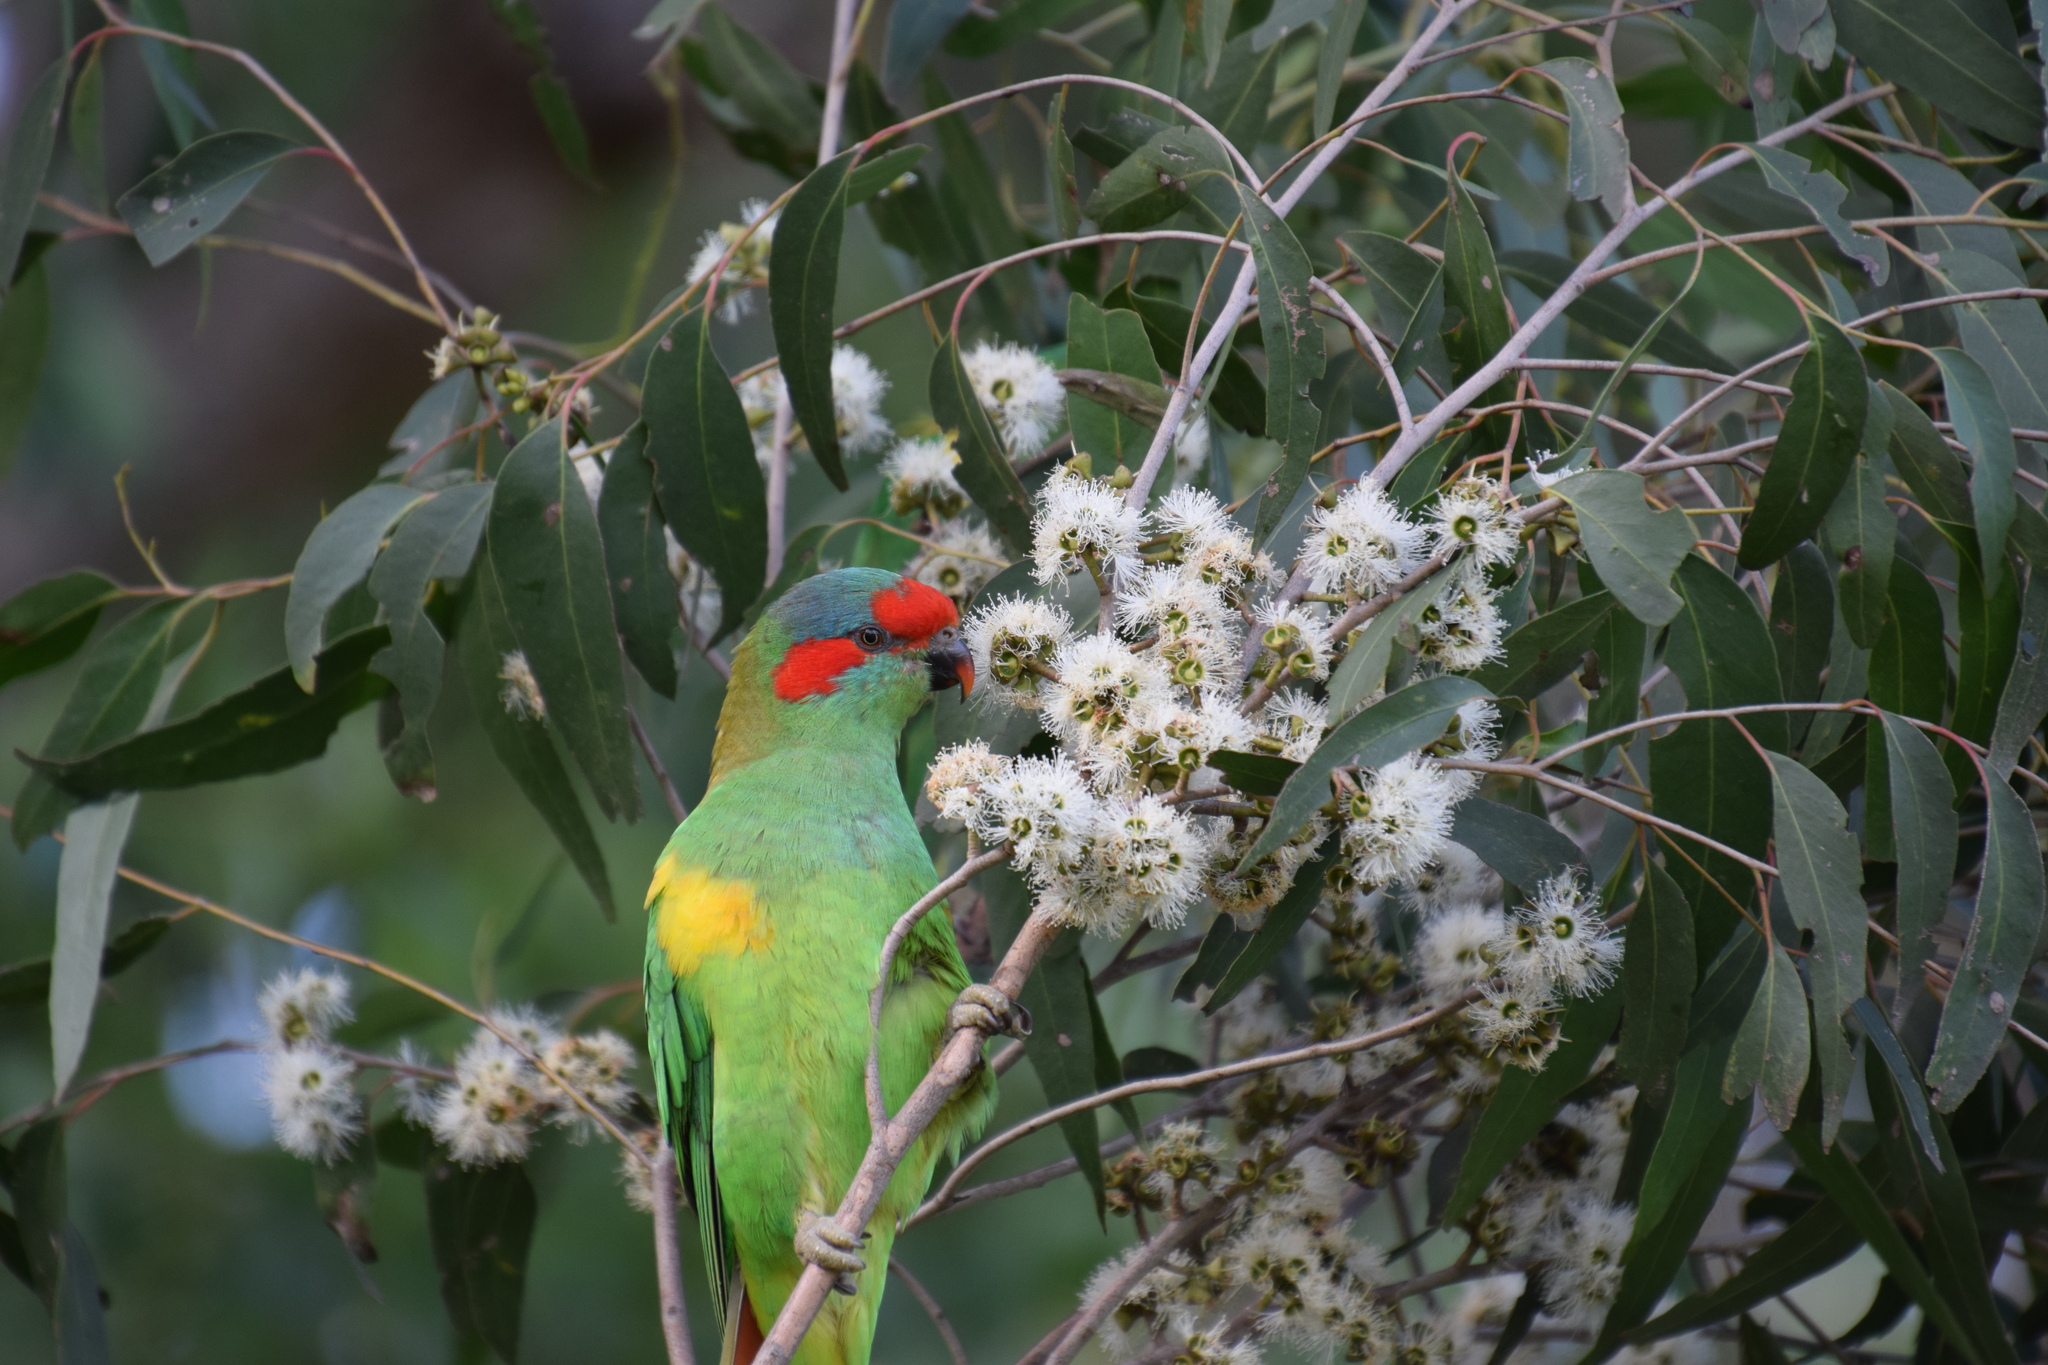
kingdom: Animalia
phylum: Chordata
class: Aves
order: Psittaciformes
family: Psittacidae
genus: Glossopsitta
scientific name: Glossopsitta concinna
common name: Musk lorikeet
